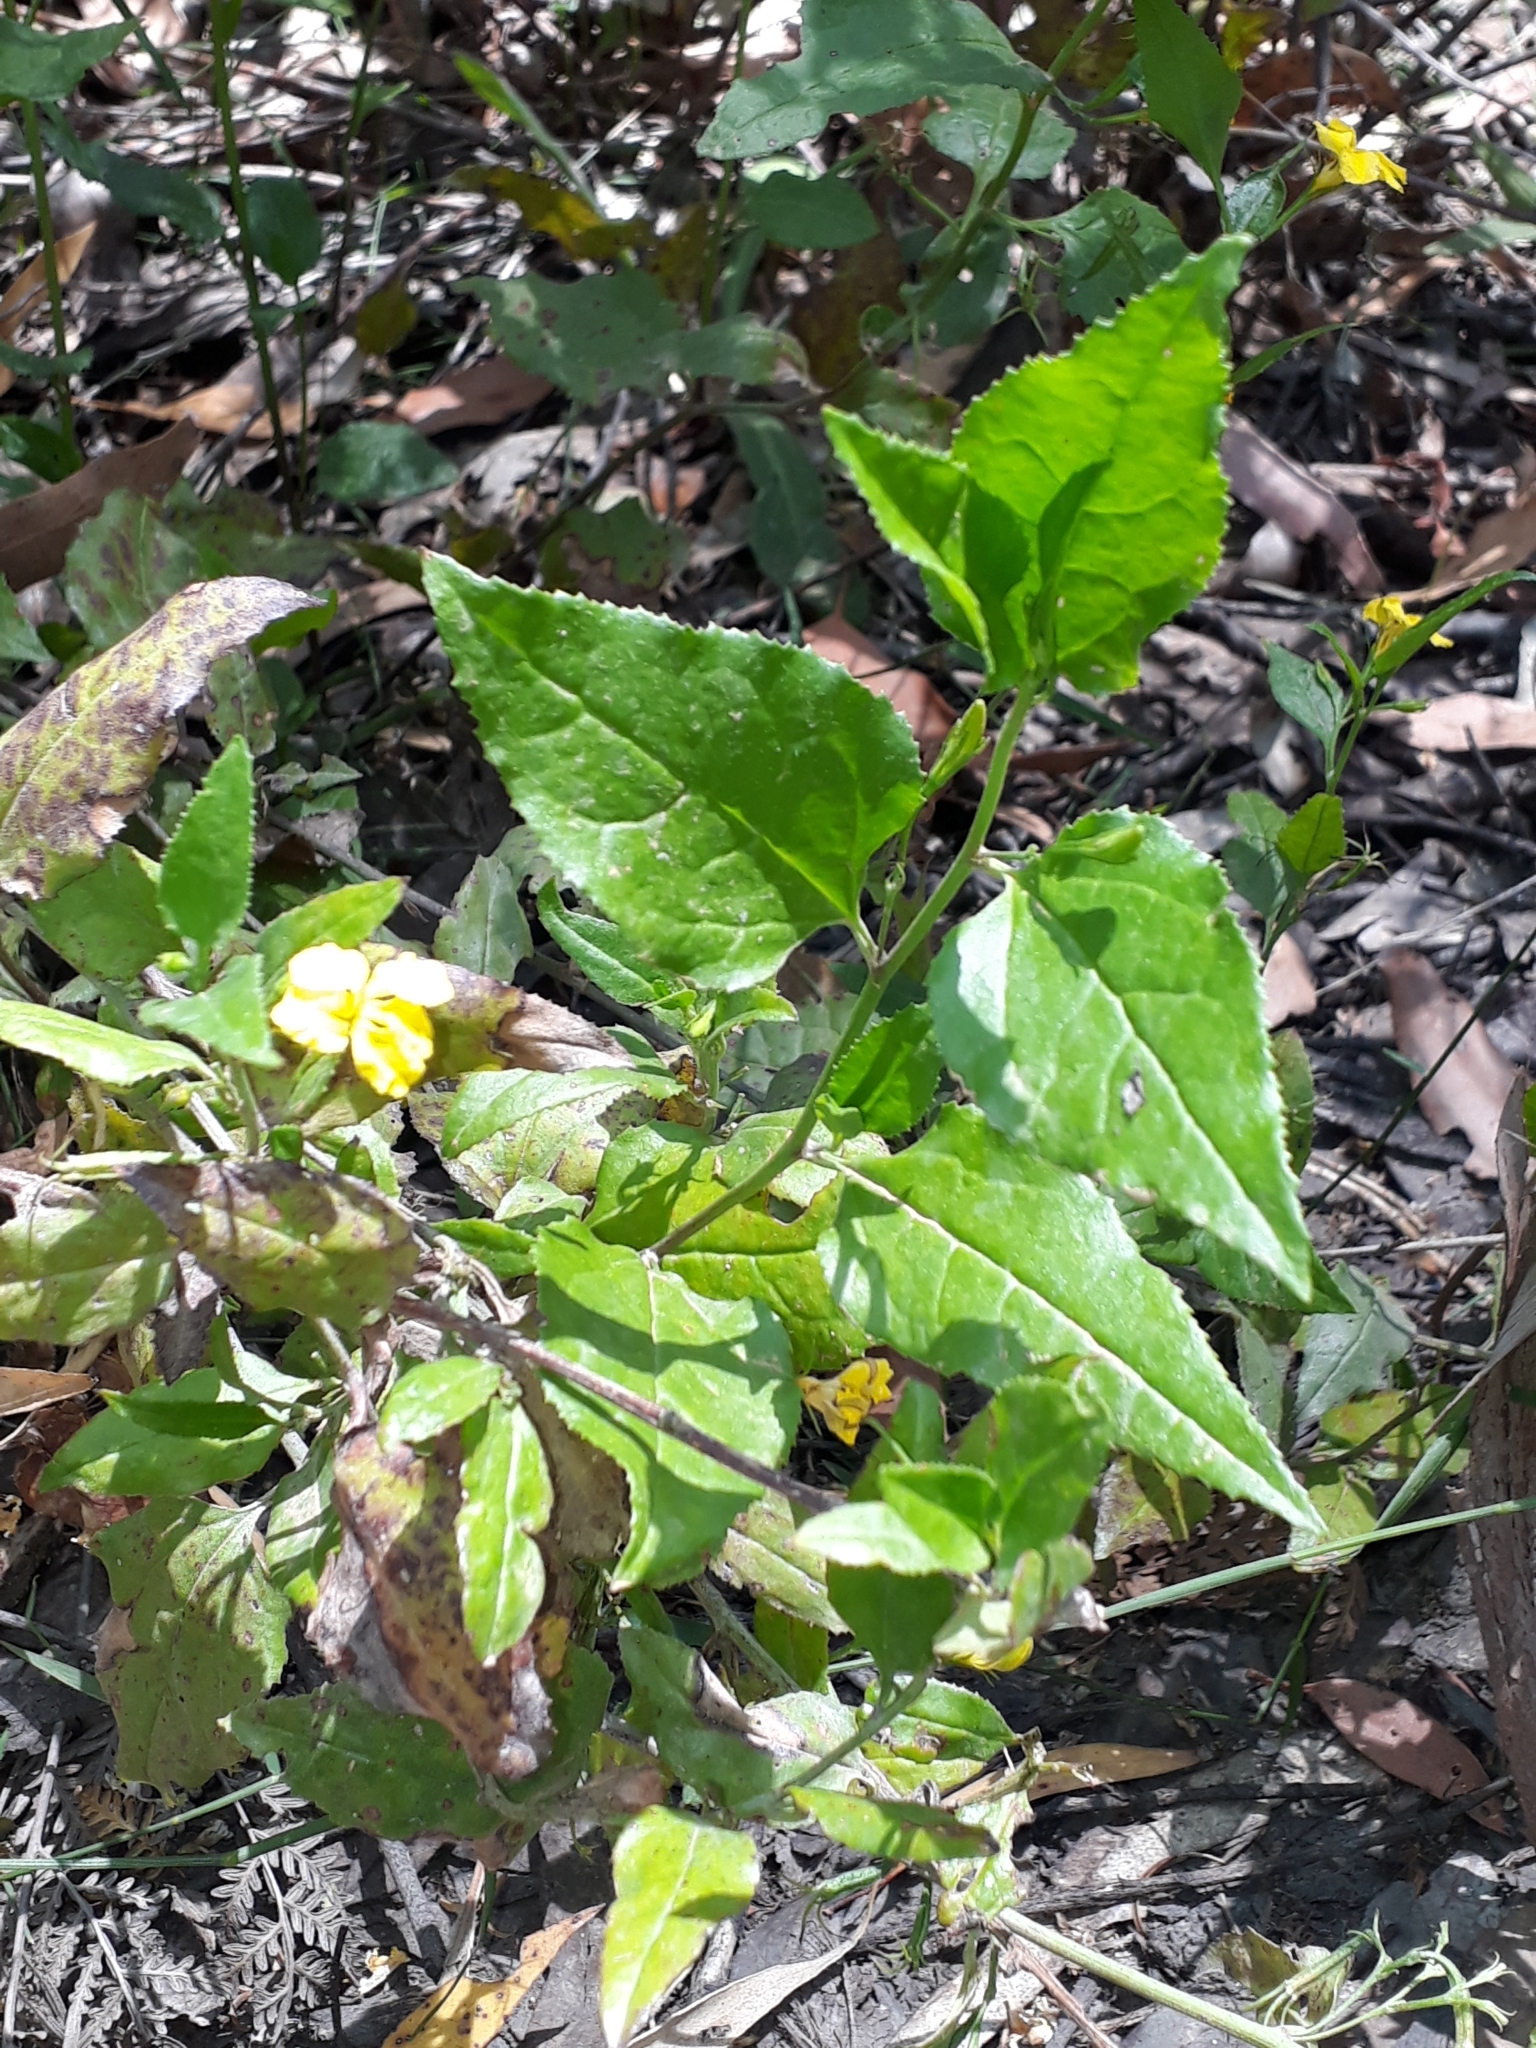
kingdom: Plantae
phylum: Tracheophyta
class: Magnoliopsida
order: Asterales
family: Goodeniaceae
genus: Goodenia
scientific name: Goodenia ovata
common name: Hop goodenia
